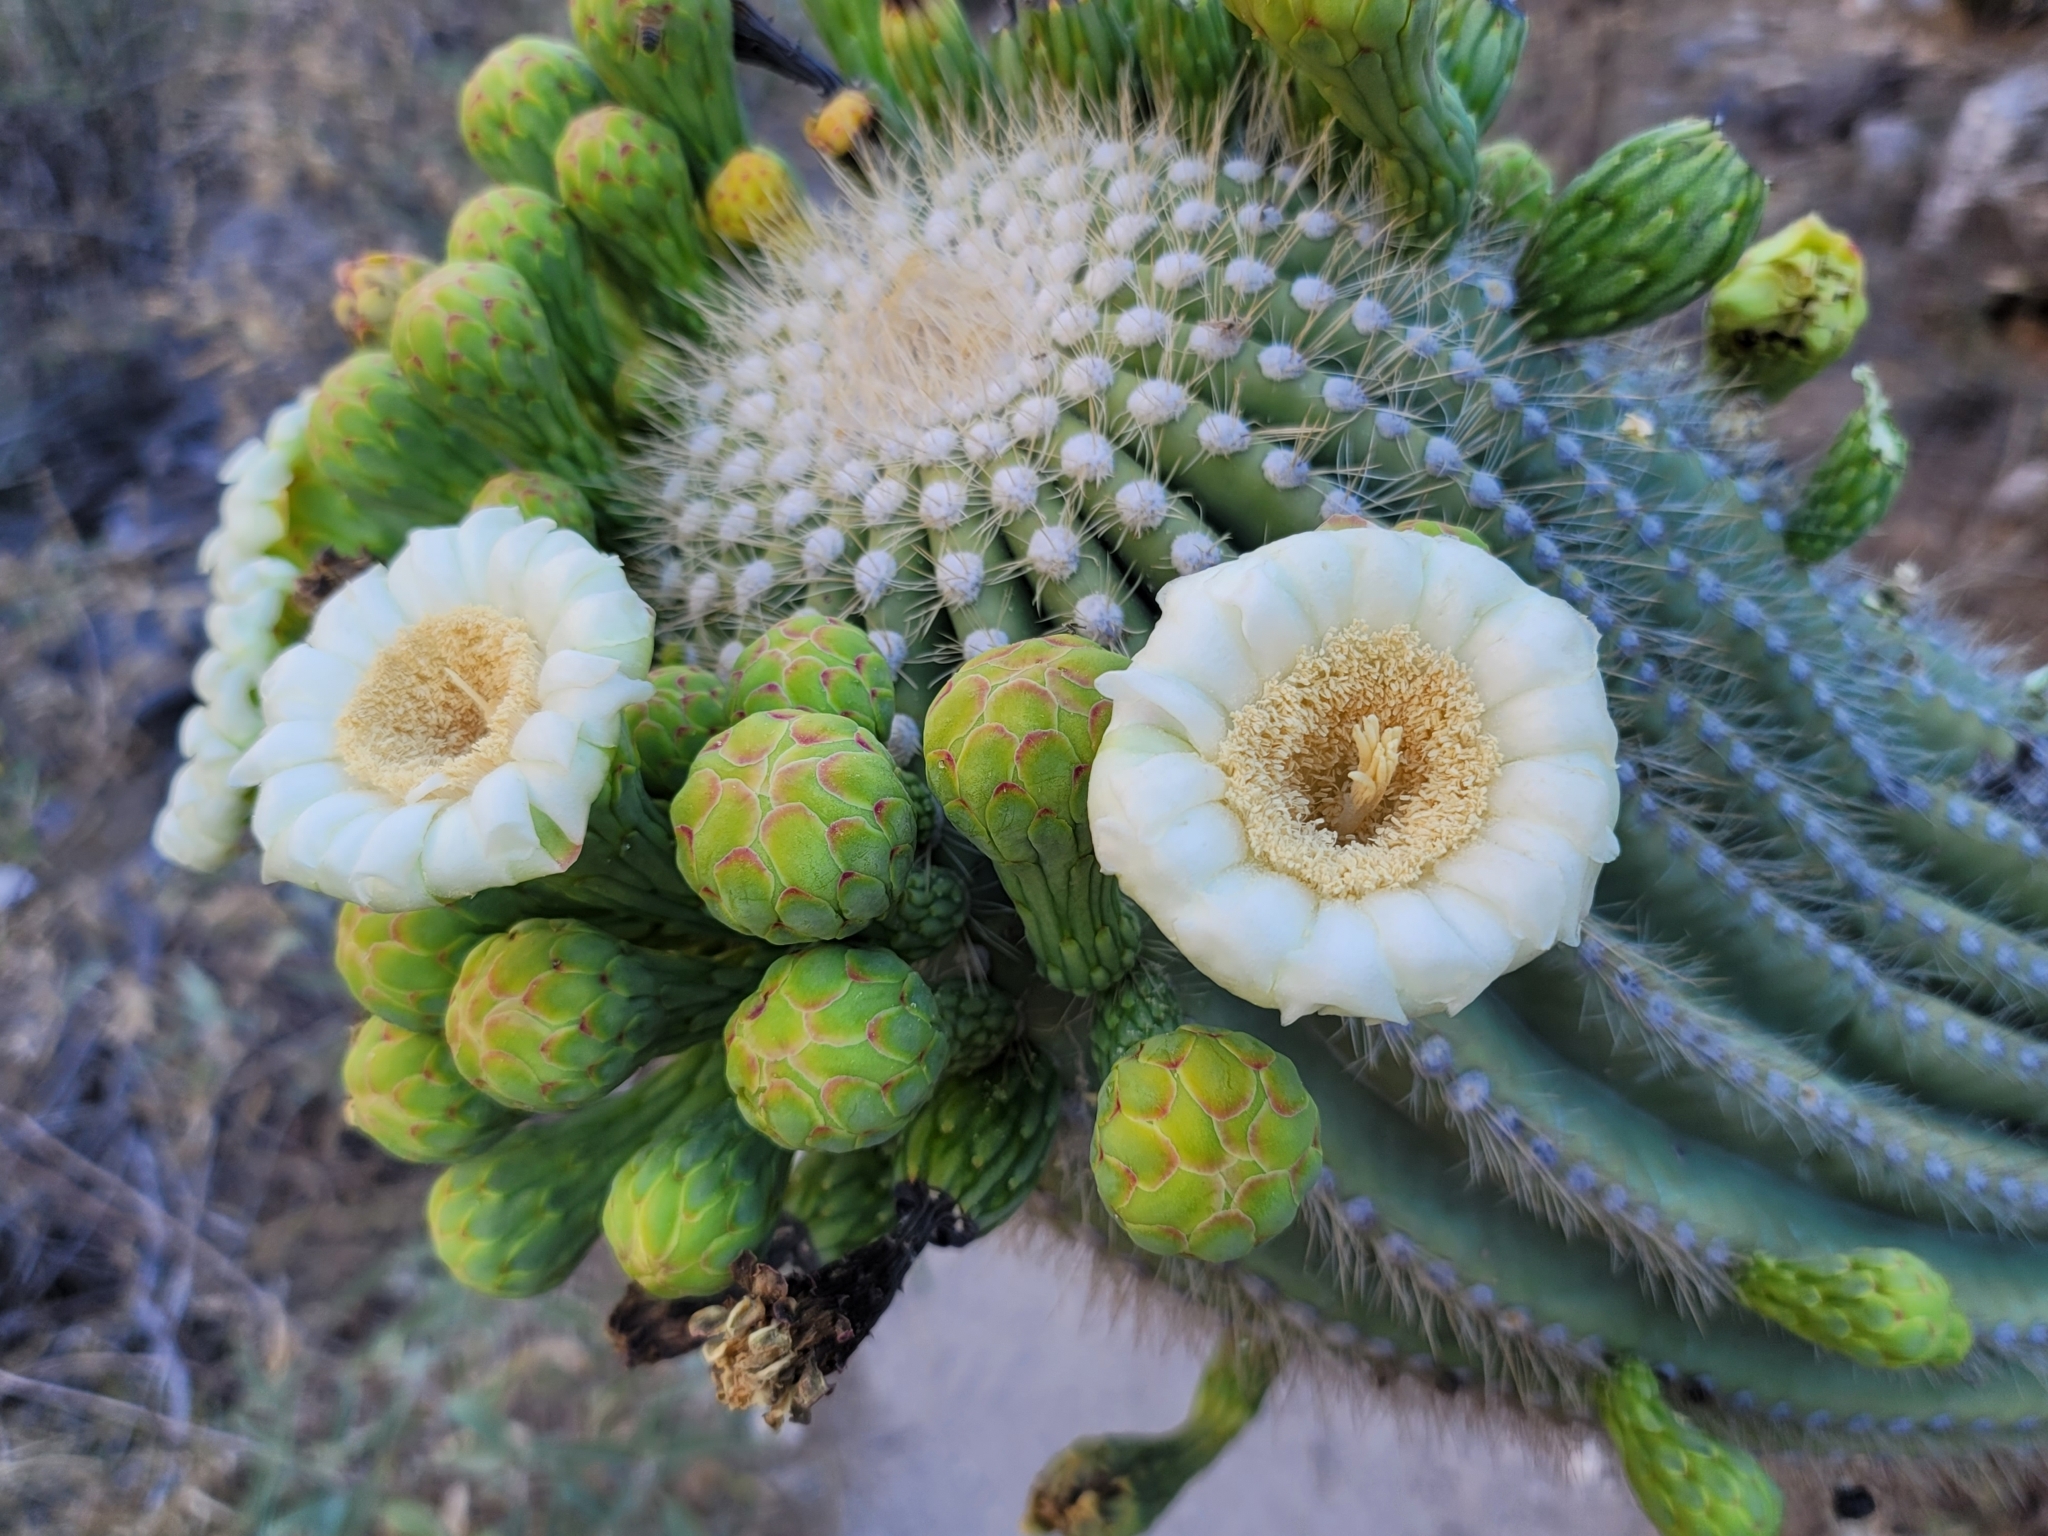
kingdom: Plantae
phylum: Tracheophyta
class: Magnoliopsida
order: Caryophyllales
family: Cactaceae
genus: Carnegiea
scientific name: Carnegiea gigantea
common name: Saguaro
